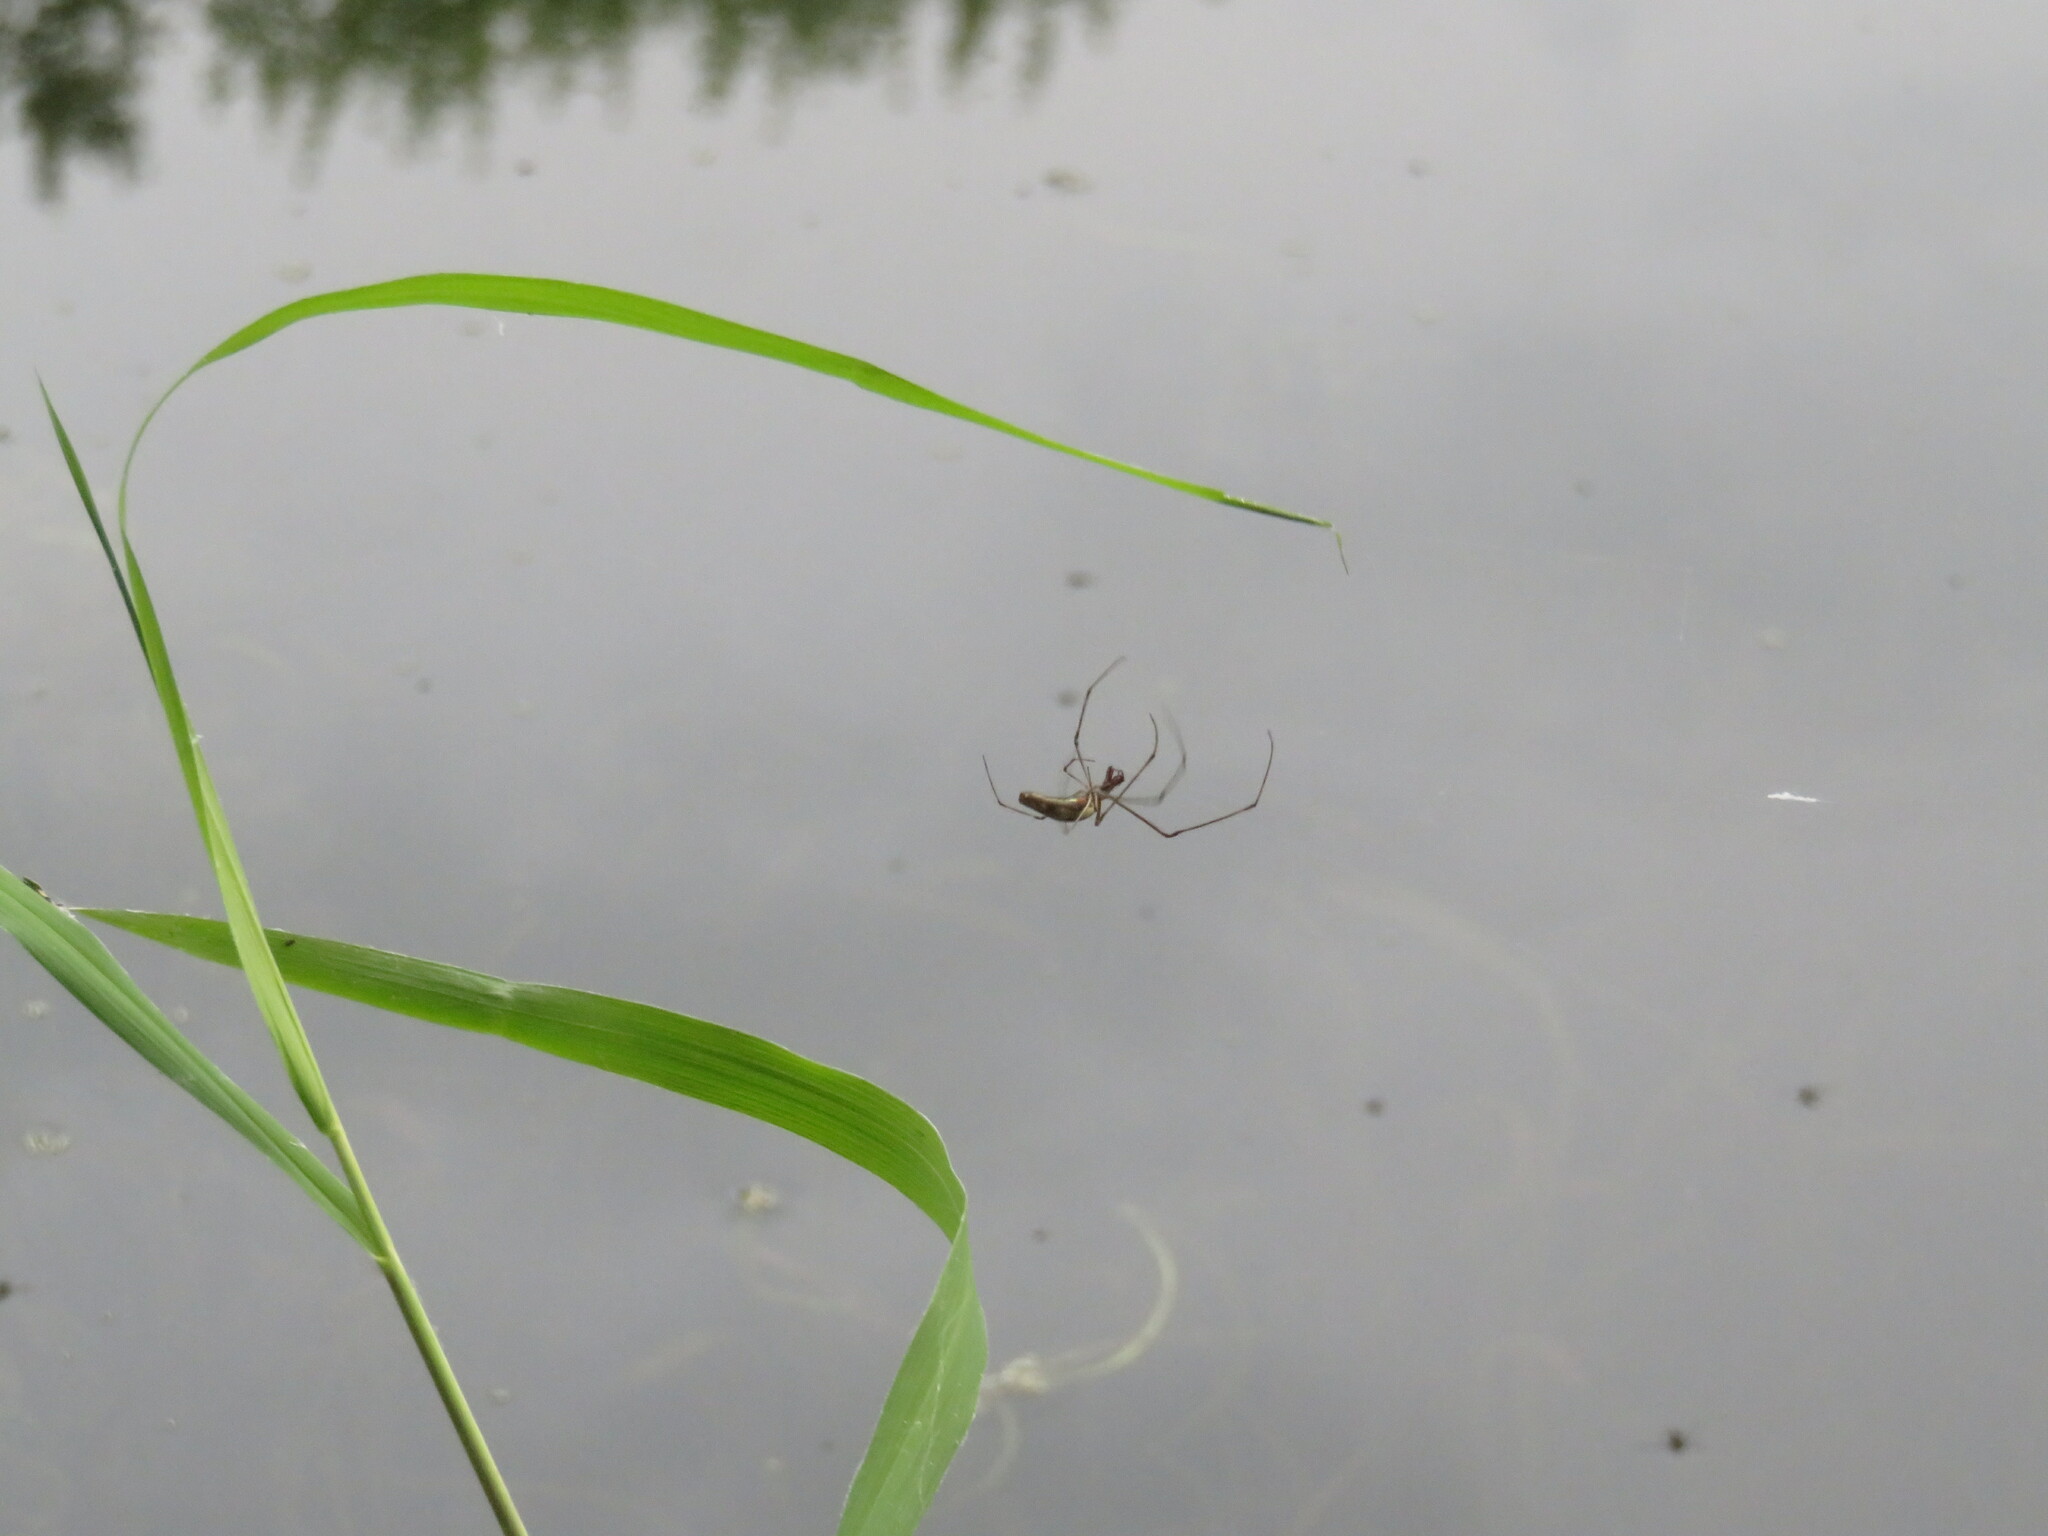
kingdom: Animalia
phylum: Arthropoda
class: Arachnida
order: Araneae
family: Tetragnathidae
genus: Tetragnatha
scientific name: Tetragnatha
